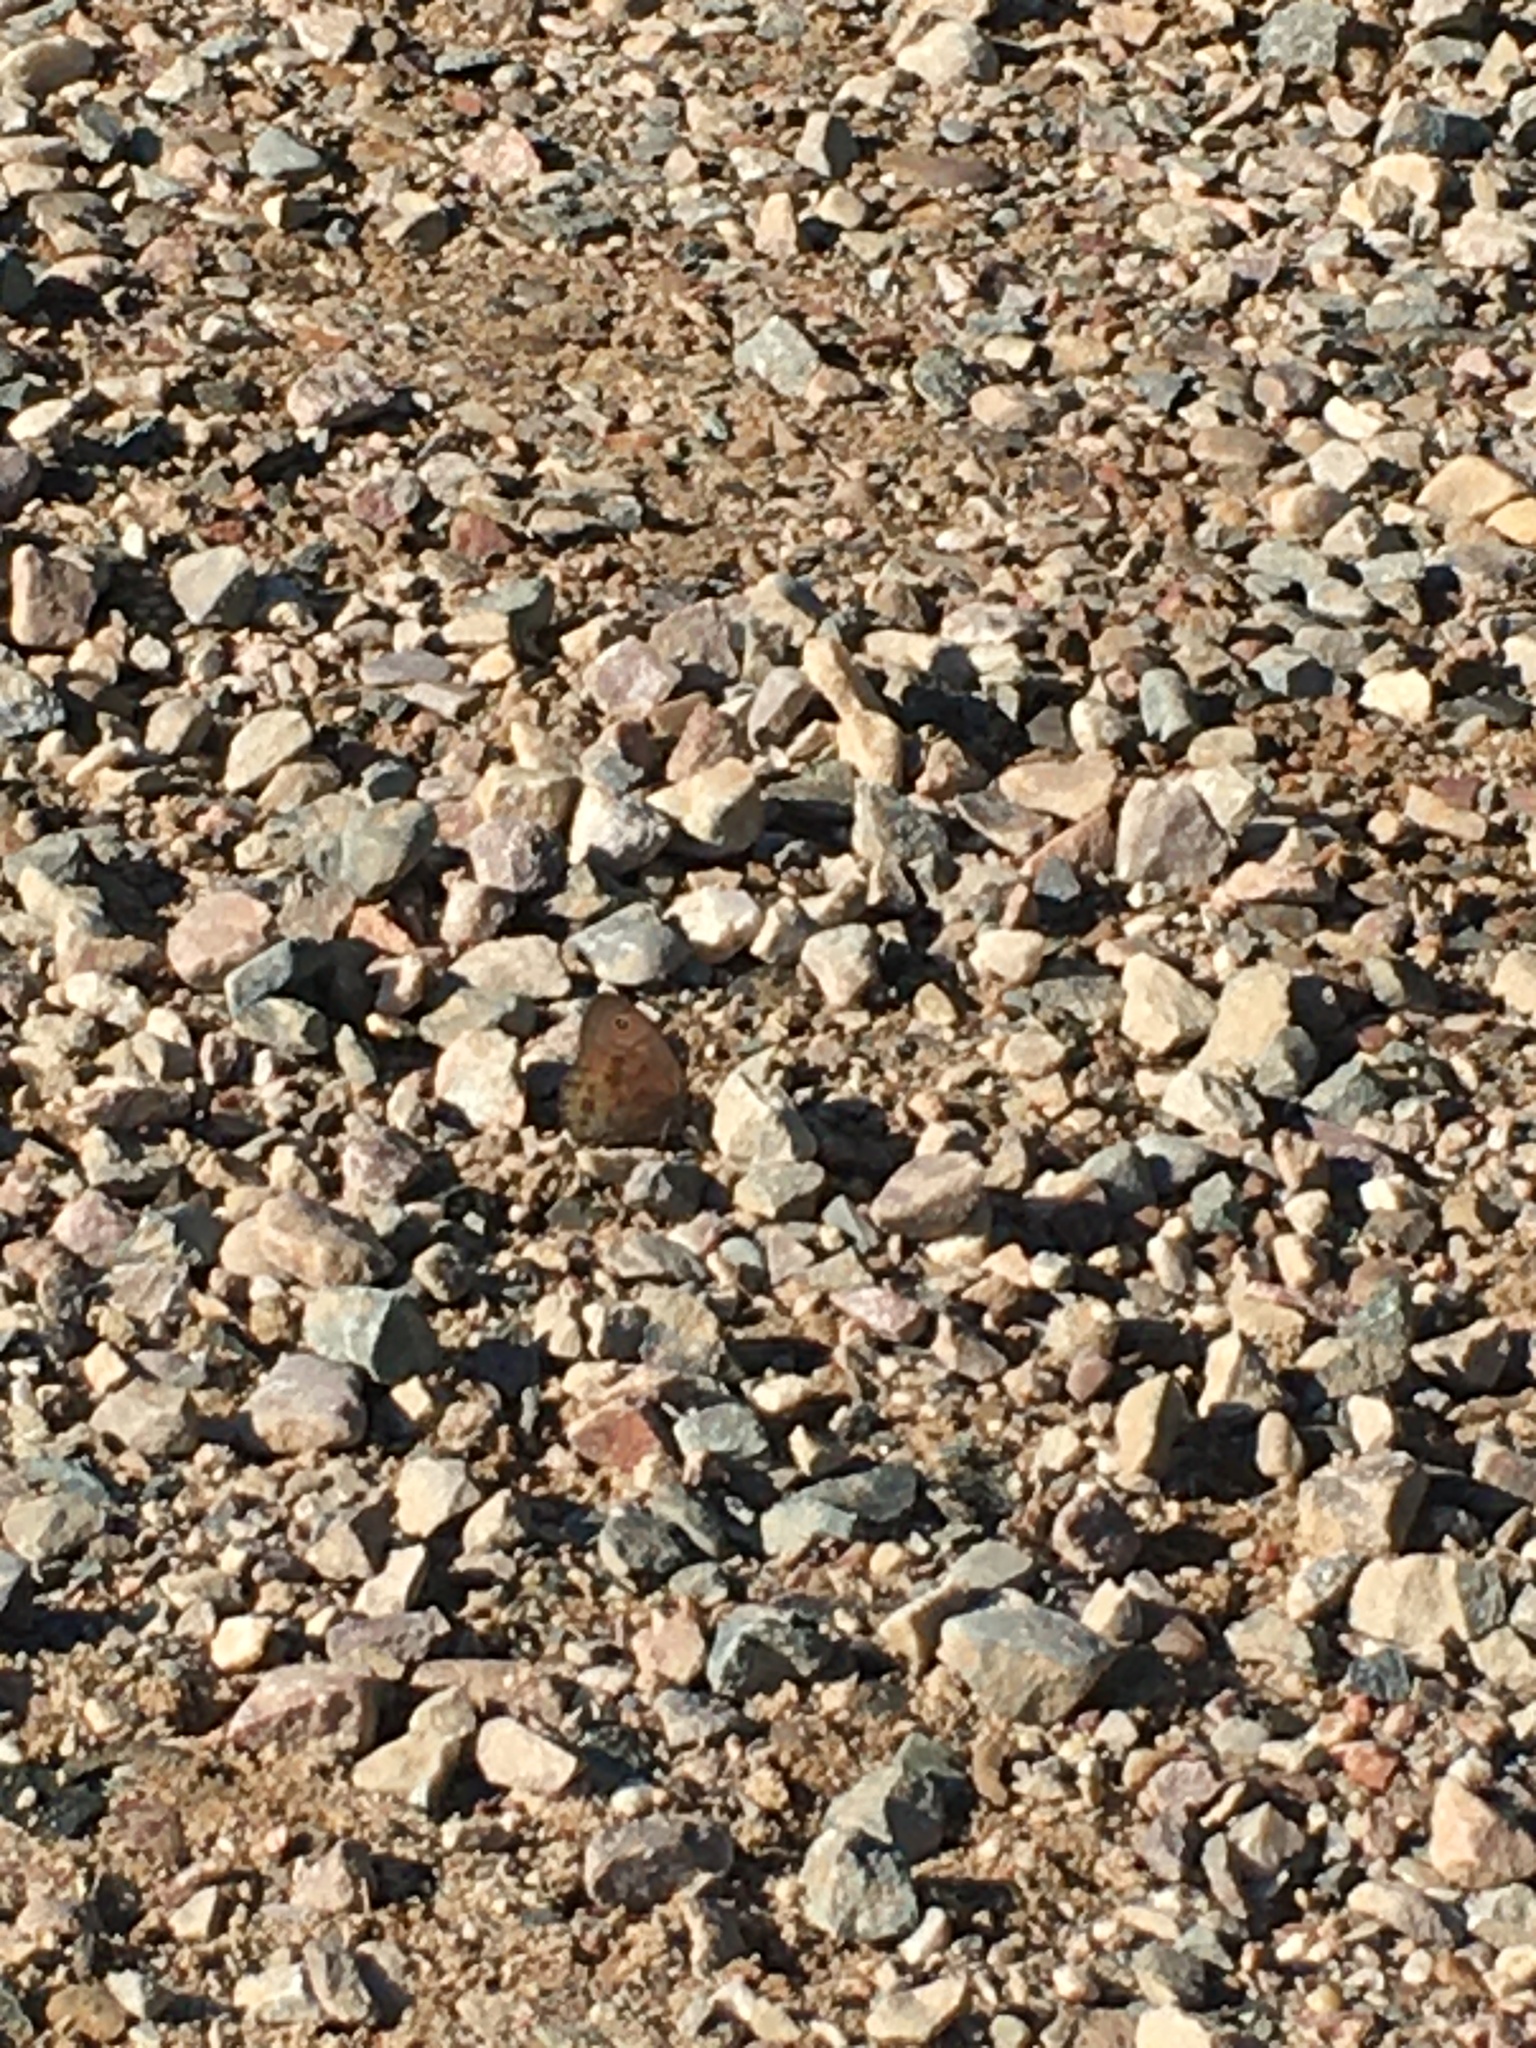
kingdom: Animalia
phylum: Arthropoda
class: Insecta
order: Lepidoptera
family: Nymphalidae
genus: Cercyonis
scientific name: Cercyonis pegala
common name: Common wood-nymph
